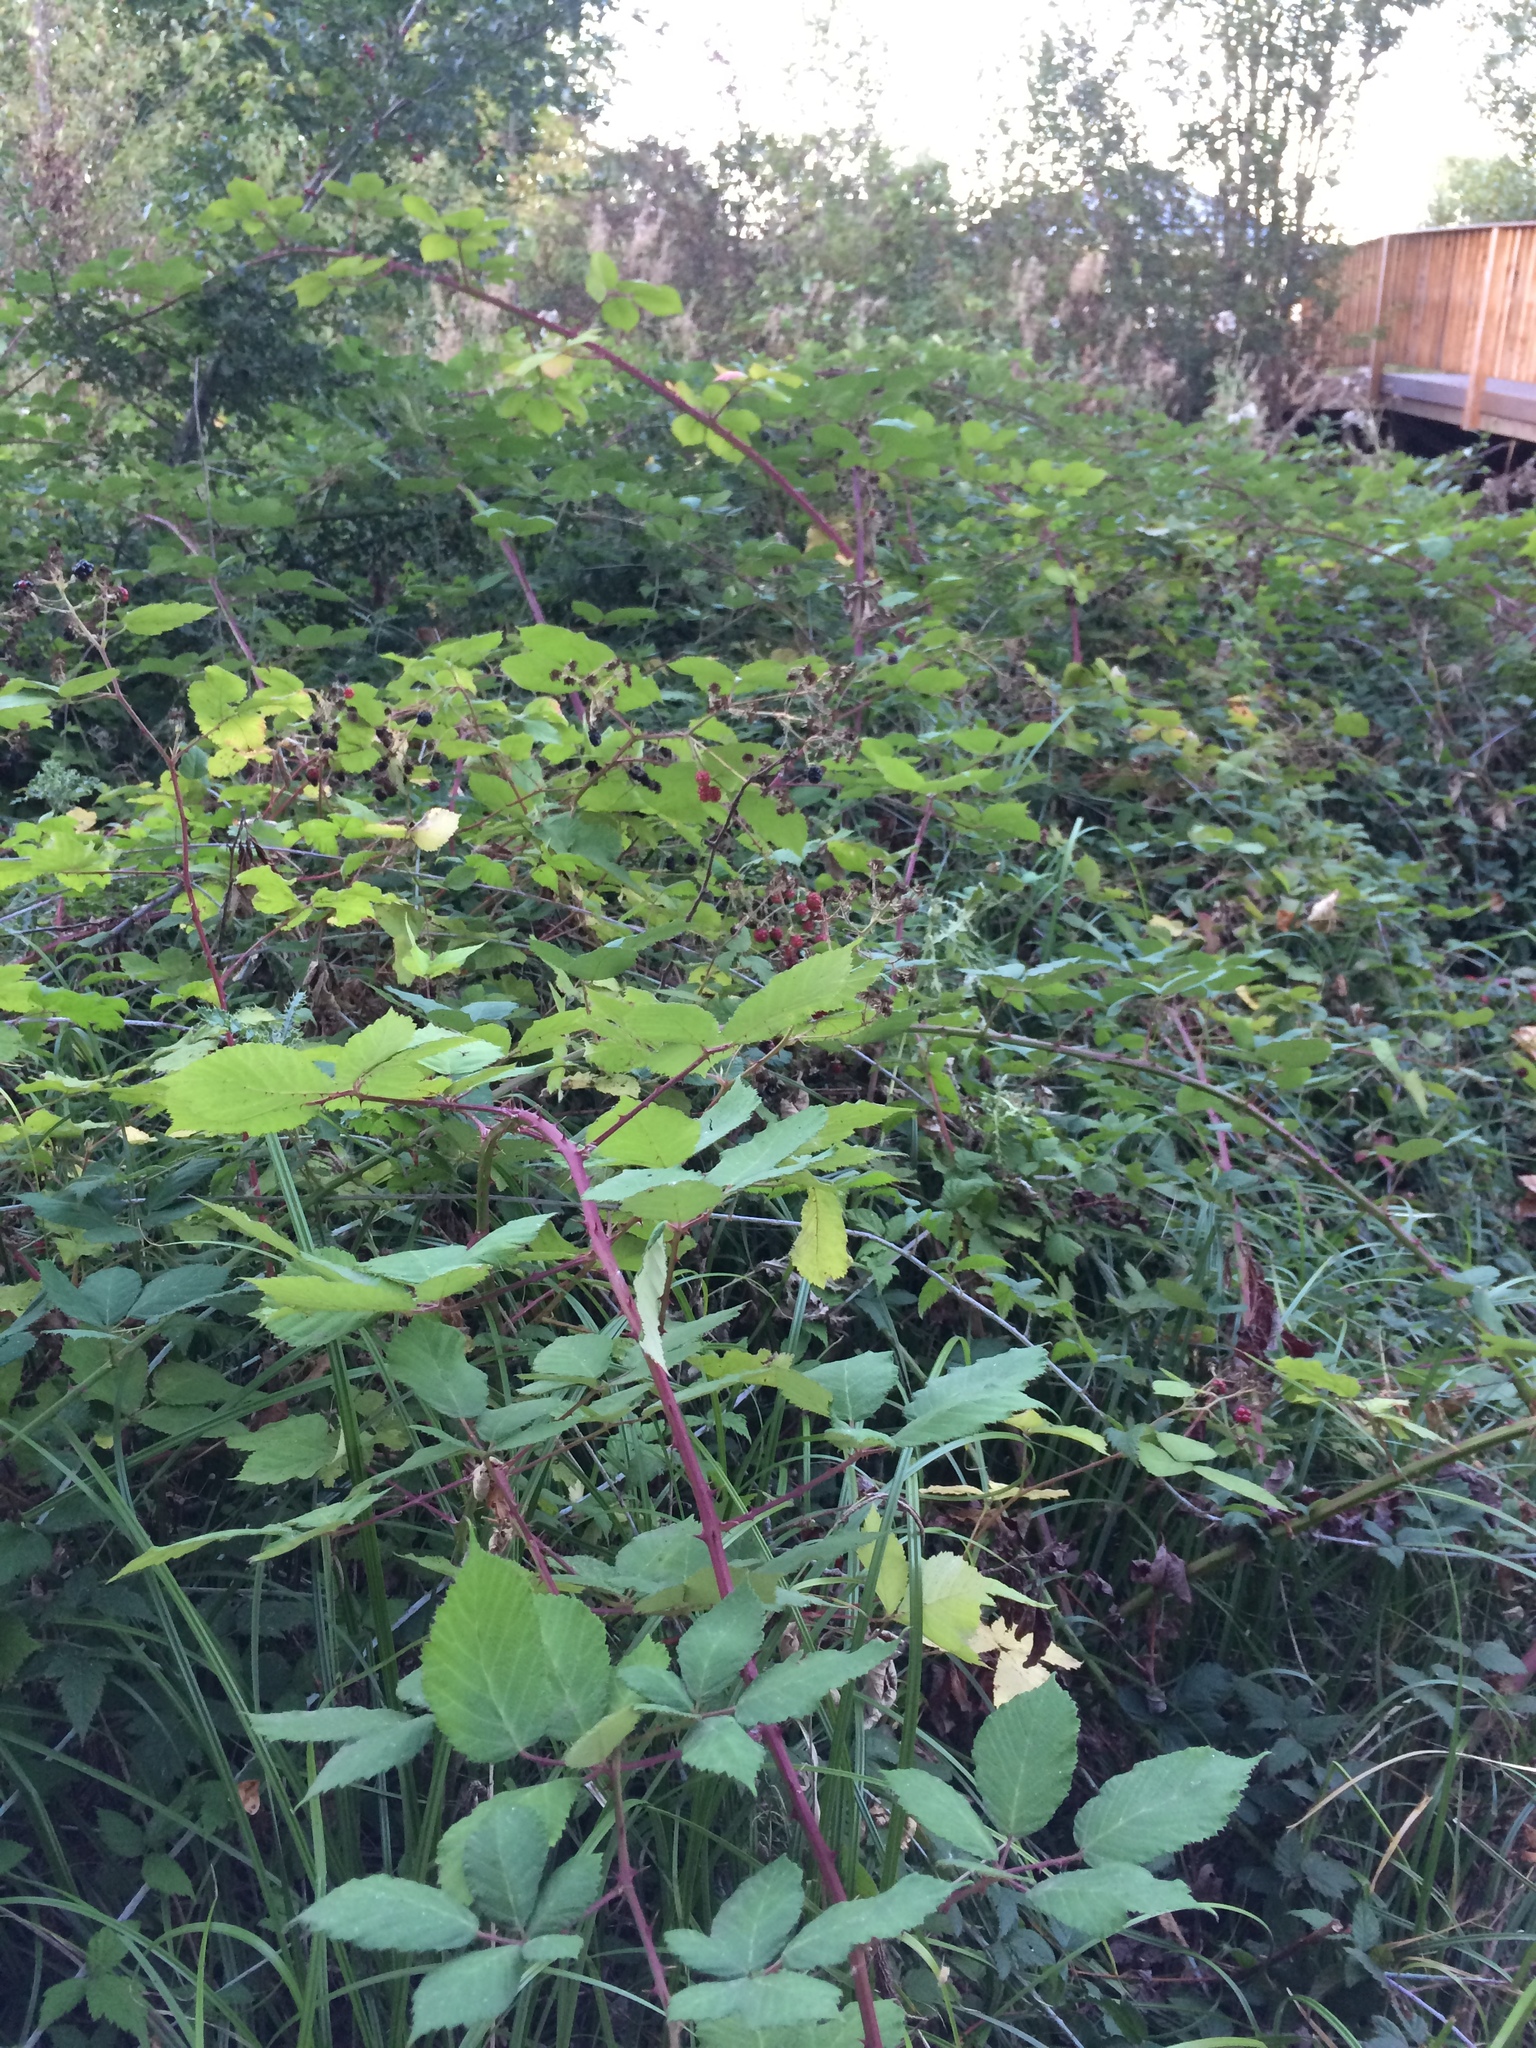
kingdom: Plantae
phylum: Tracheophyta
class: Magnoliopsida
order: Rosales
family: Rosaceae
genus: Rubus
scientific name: Rubus armeniacus
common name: Himalayan blackberry
